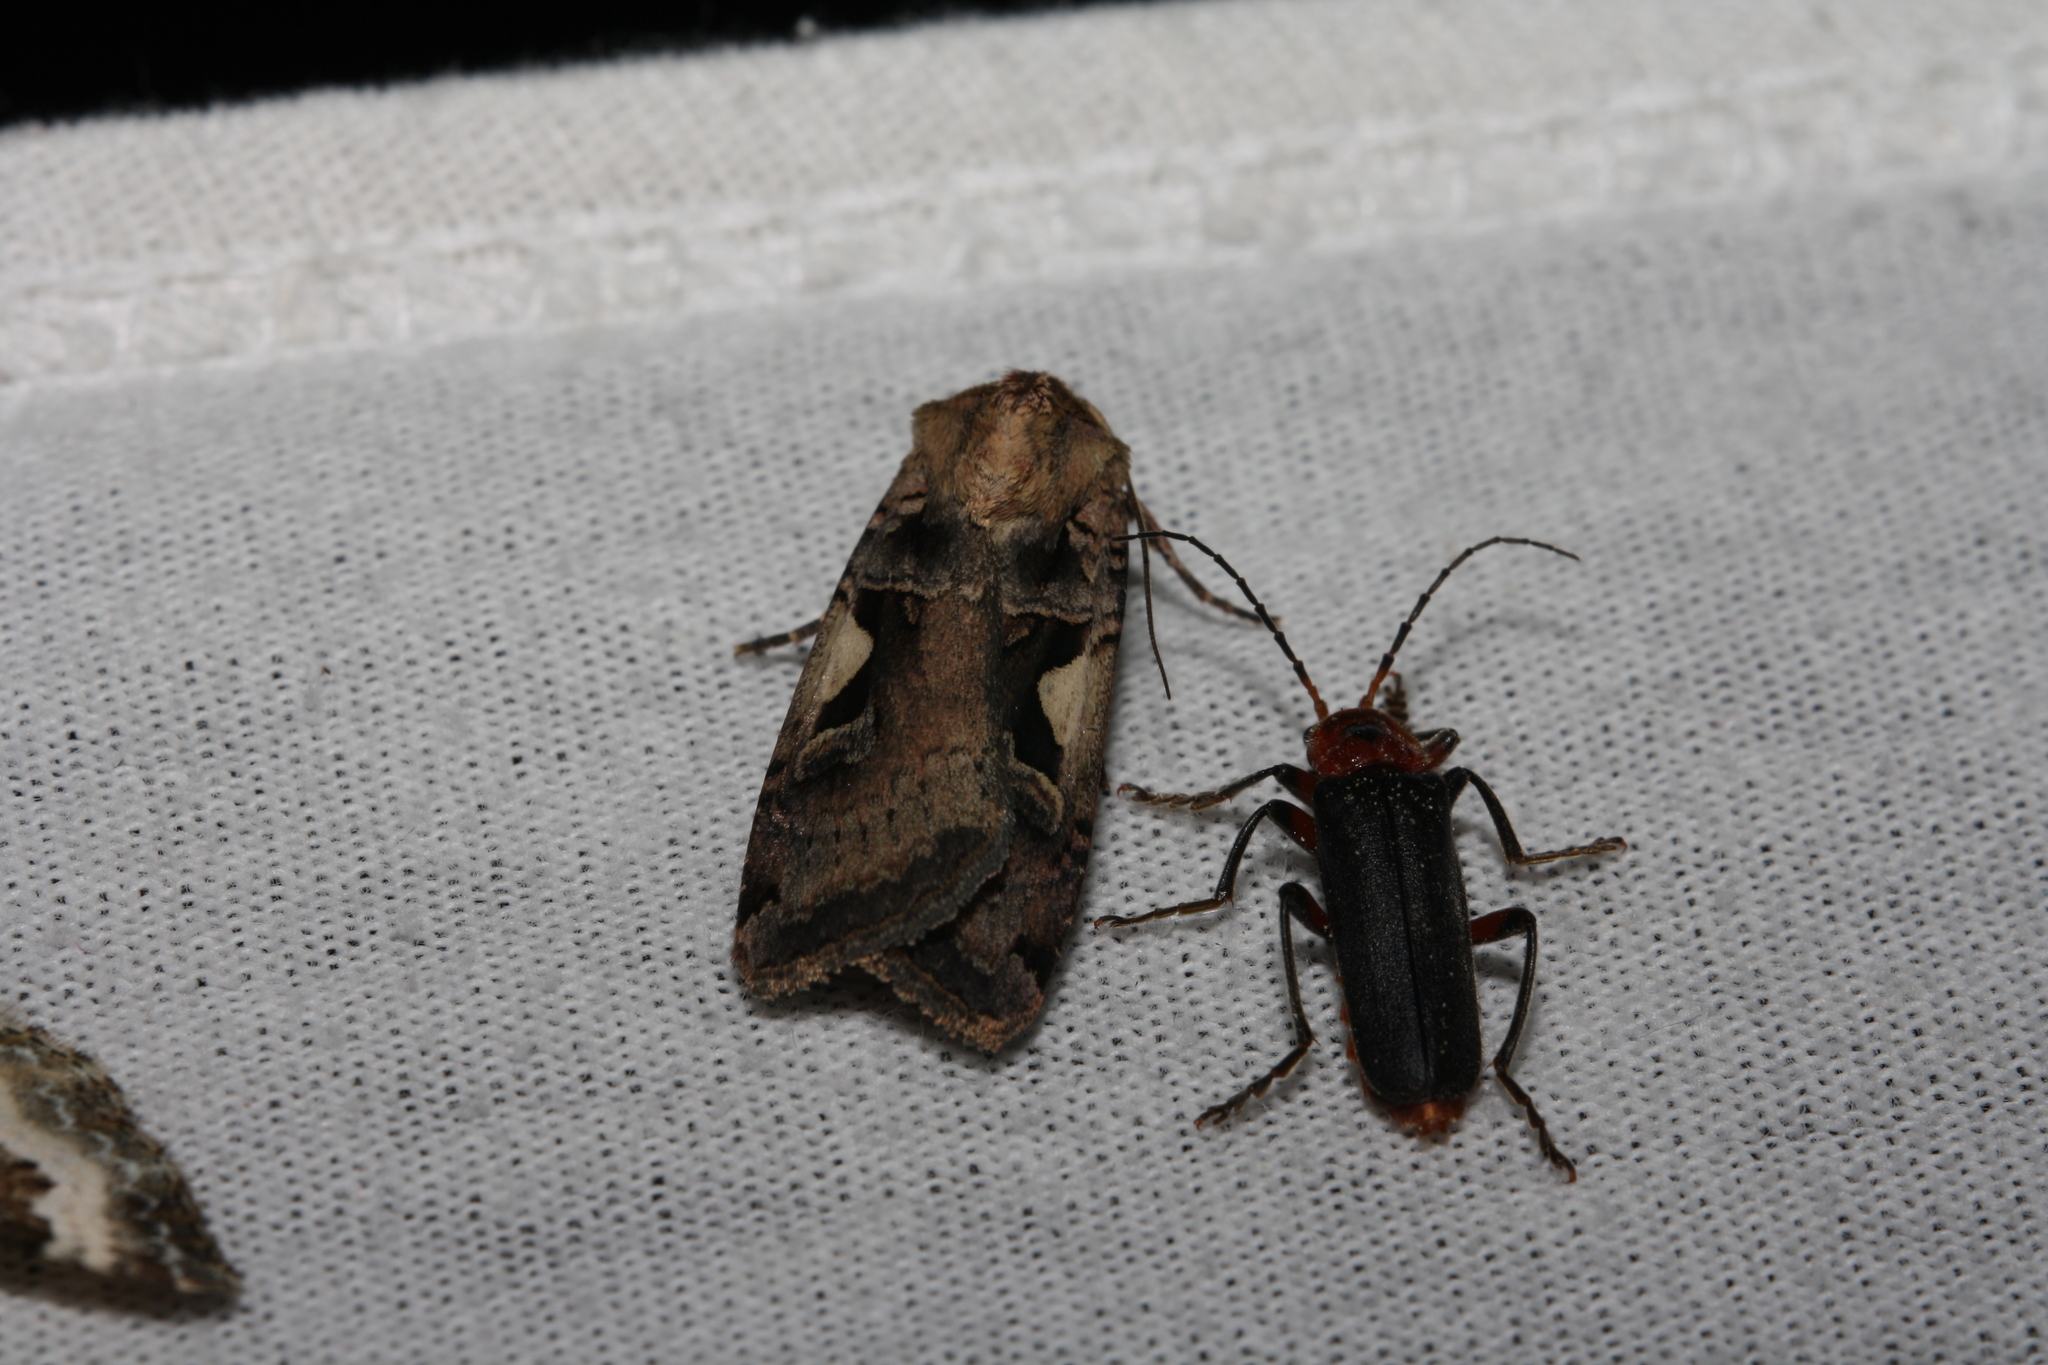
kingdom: Animalia
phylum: Arthropoda
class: Insecta
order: Lepidoptera
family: Noctuidae
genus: Xestia
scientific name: Xestia c-nigrum
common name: Setaceous hebrew character
